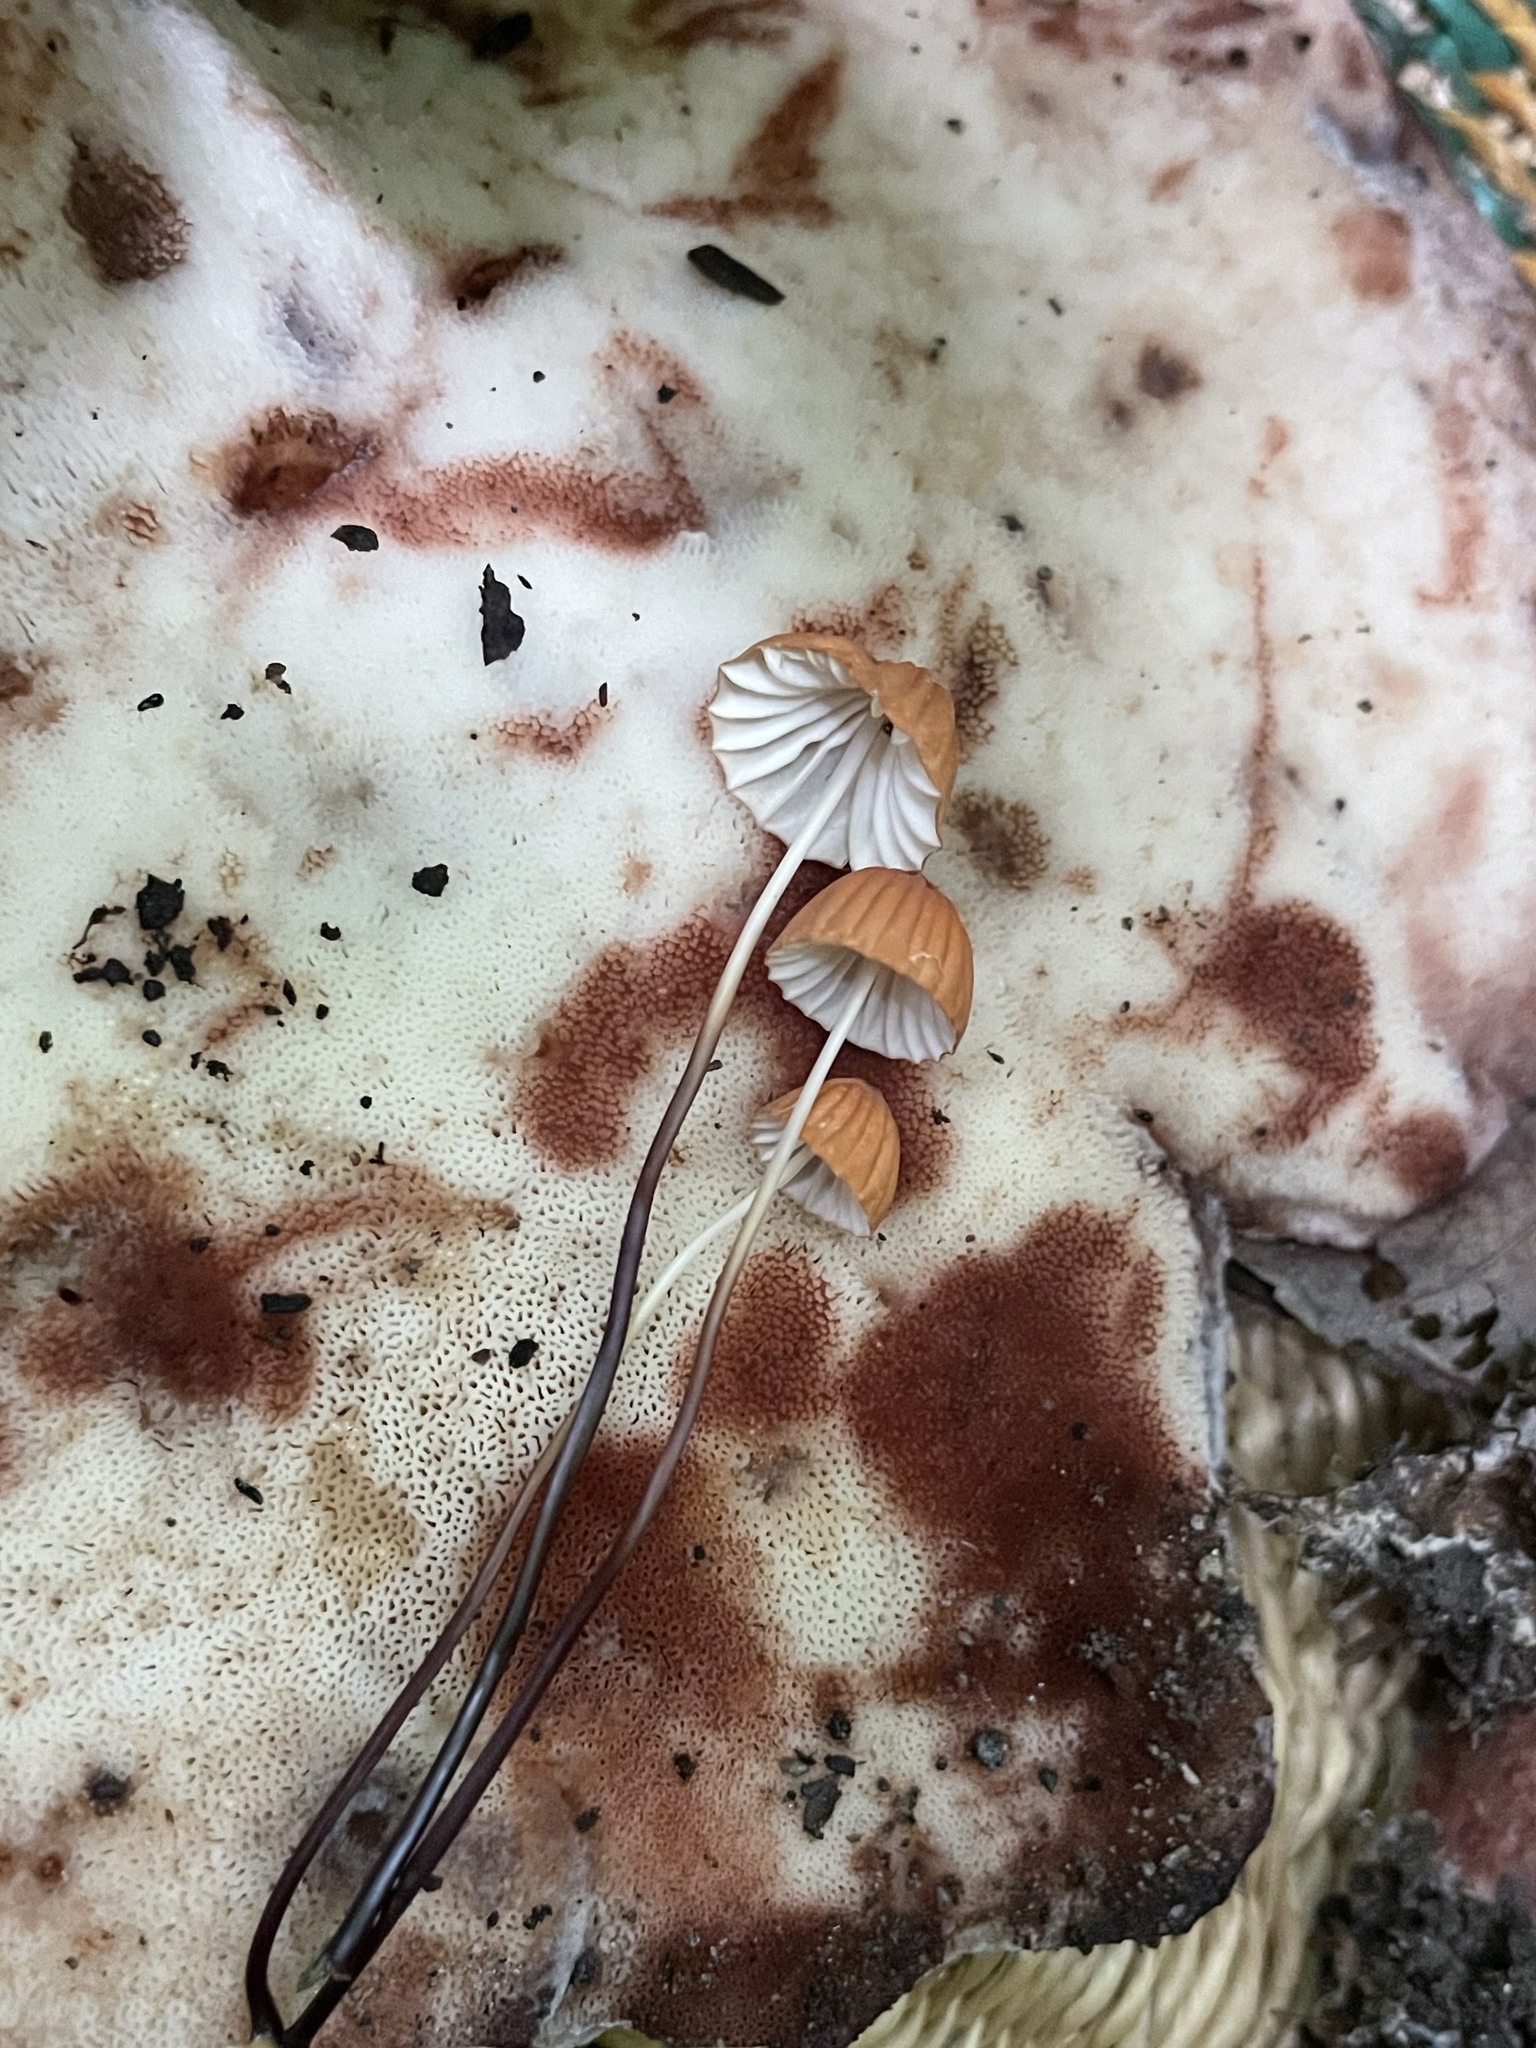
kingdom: Fungi
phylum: Basidiomycota
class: Agaricomycetes
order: Agaricales
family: Marasmiaceae
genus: Marasmius
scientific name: Marasmius siccus
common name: Orange pinwheel
